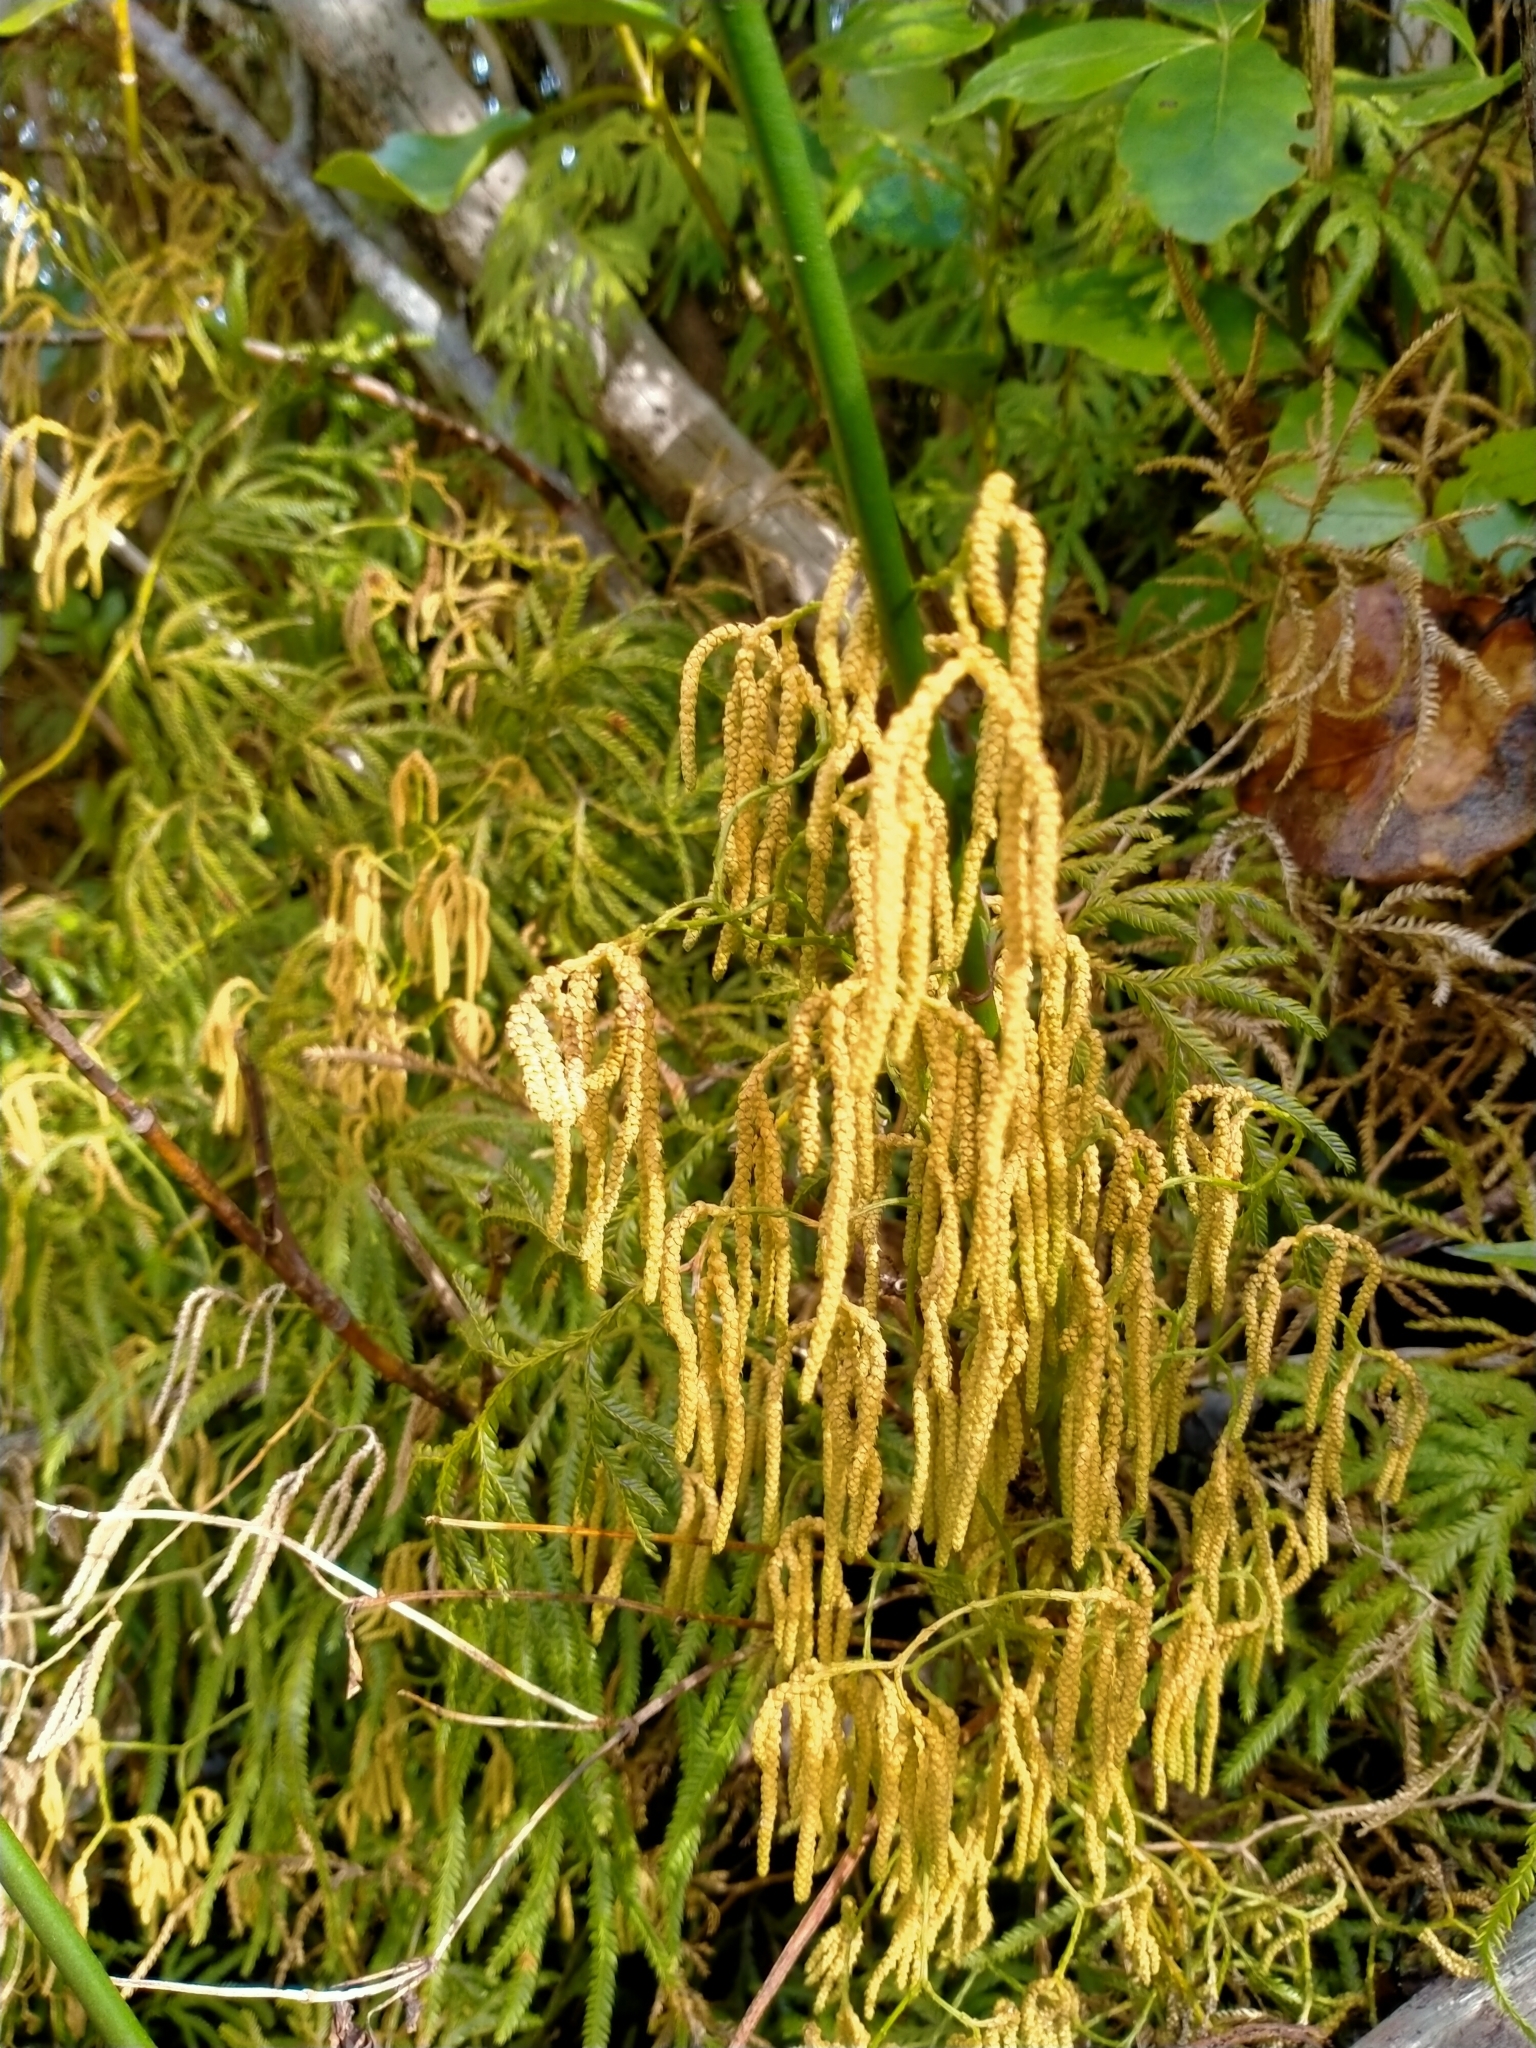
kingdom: Plantae
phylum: Tracheophyta
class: Lycopodiopsida
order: Lycopodiales
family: Lycopodiaceae
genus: Lycopodium
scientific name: Lycopodium volubile
